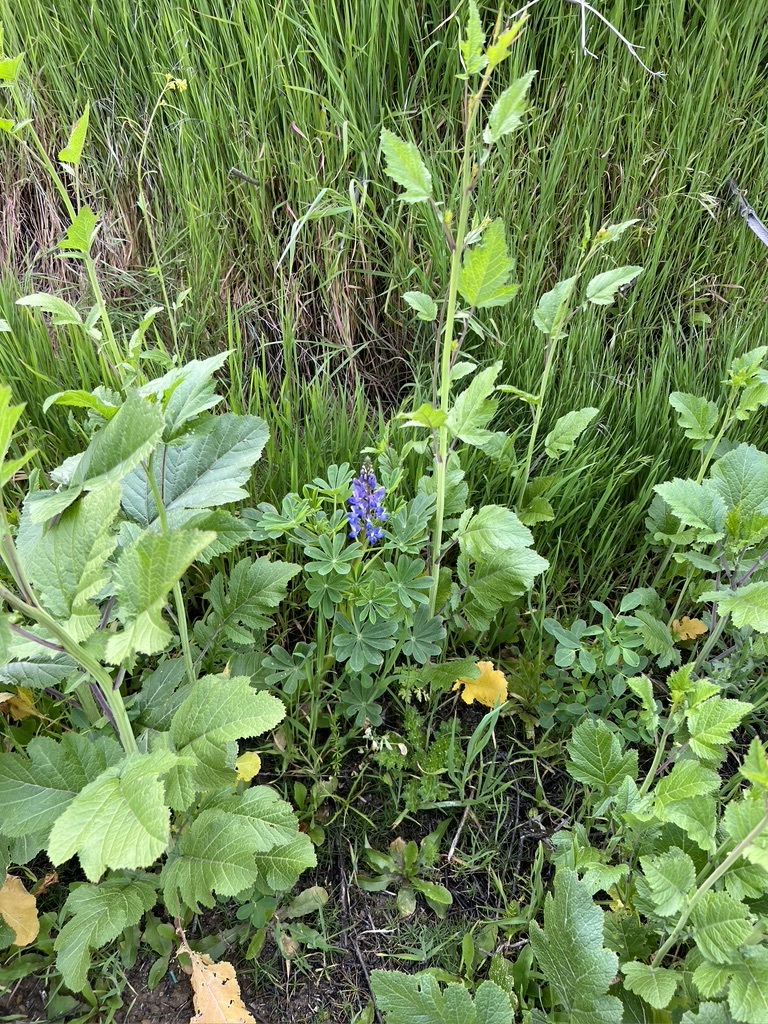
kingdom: Plantae
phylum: Tracheophyta
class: Magnoliopsida
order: Fabales
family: Fabaceae
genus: Lupinus
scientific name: Lupinus succulentus
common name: Arroyo lupine
